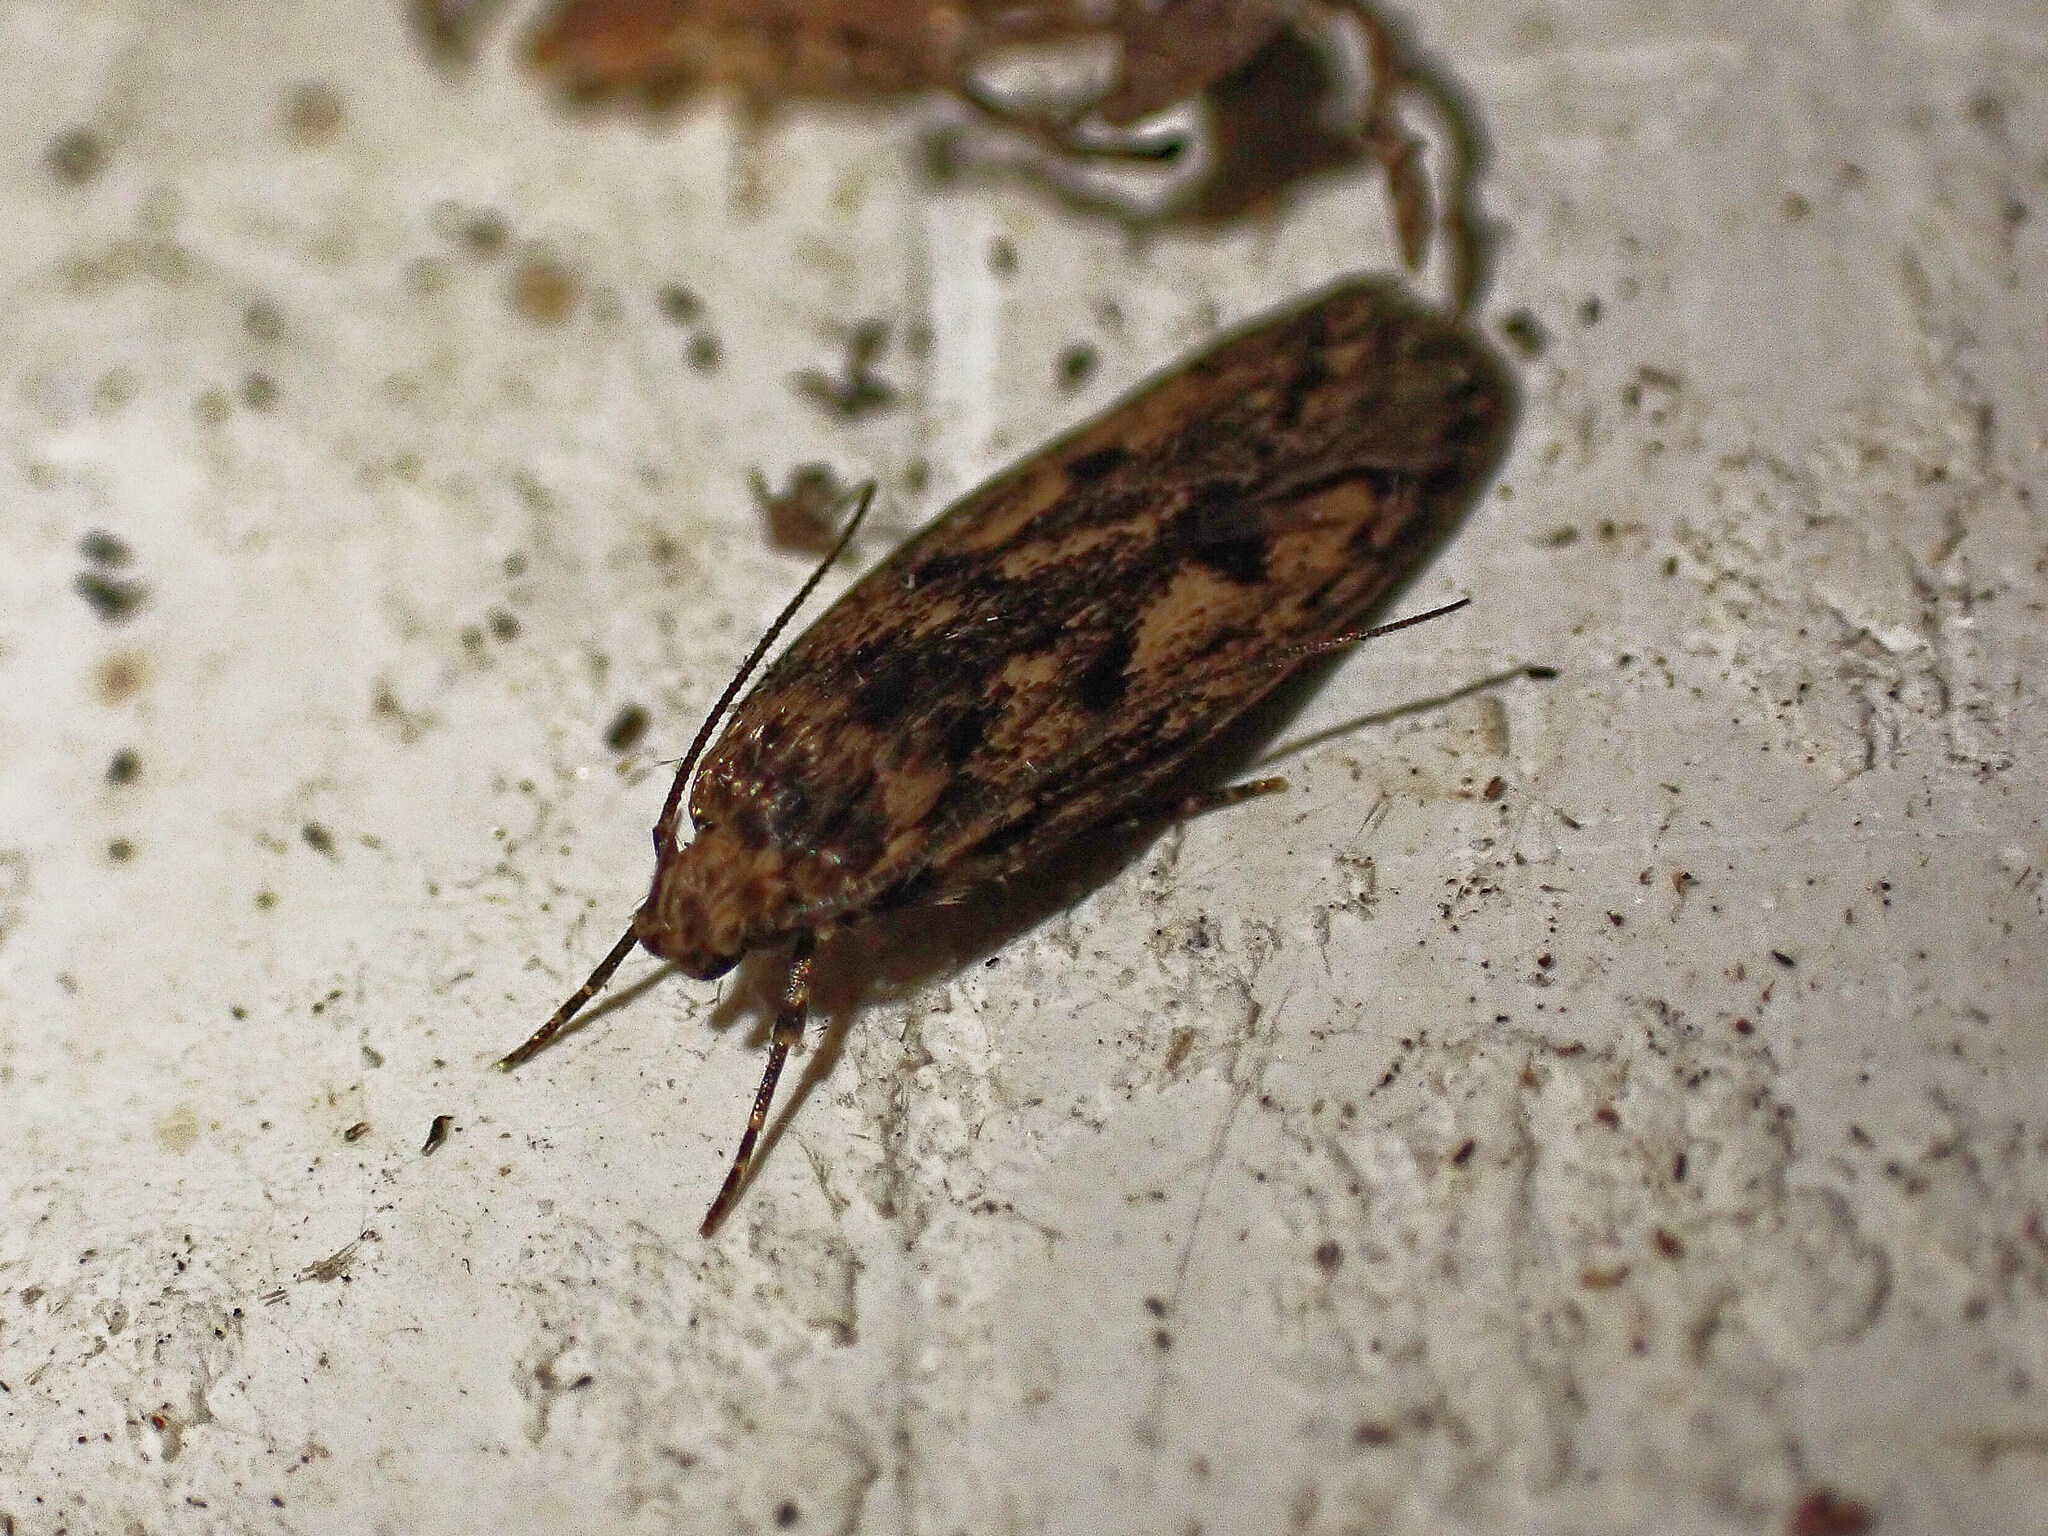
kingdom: Animalia
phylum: Arthropoda
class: Insecta
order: Lepidoptera
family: Oecophoridae
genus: Hofmannophila
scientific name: Hofmannophila pseudospretella
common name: Brown house moth
